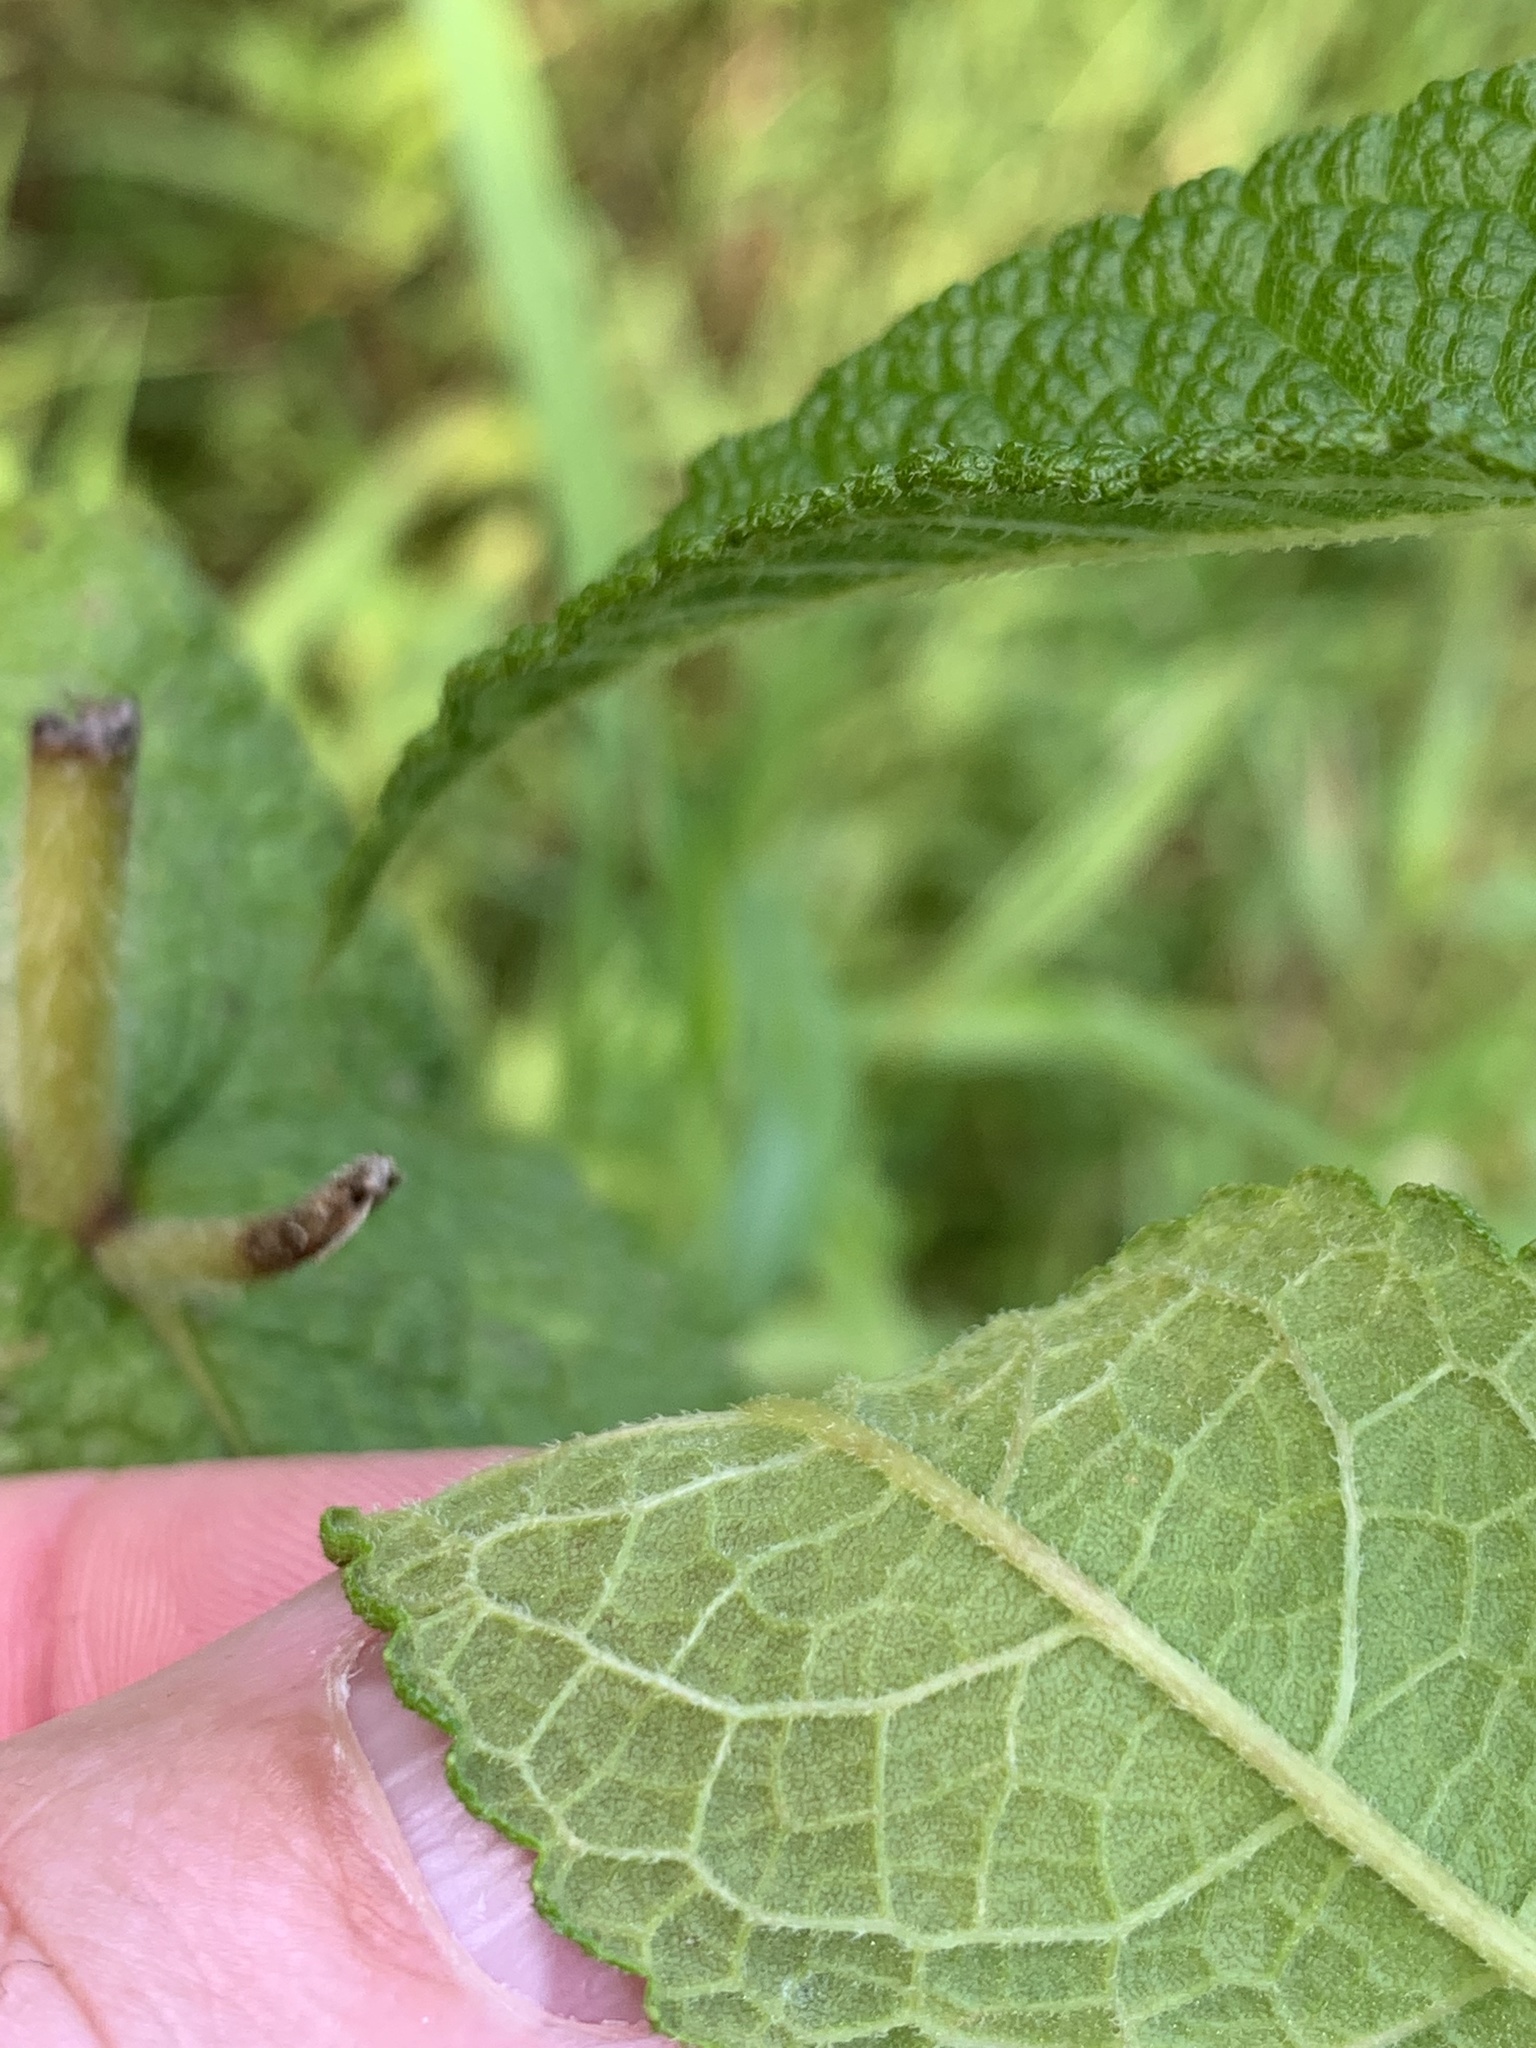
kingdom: Plantae
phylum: Tracheophyta
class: Magnoliopsida
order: Asterales
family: Asteraceae
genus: Eupatorium
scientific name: Eupatorium perfoliatum
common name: Boneset
